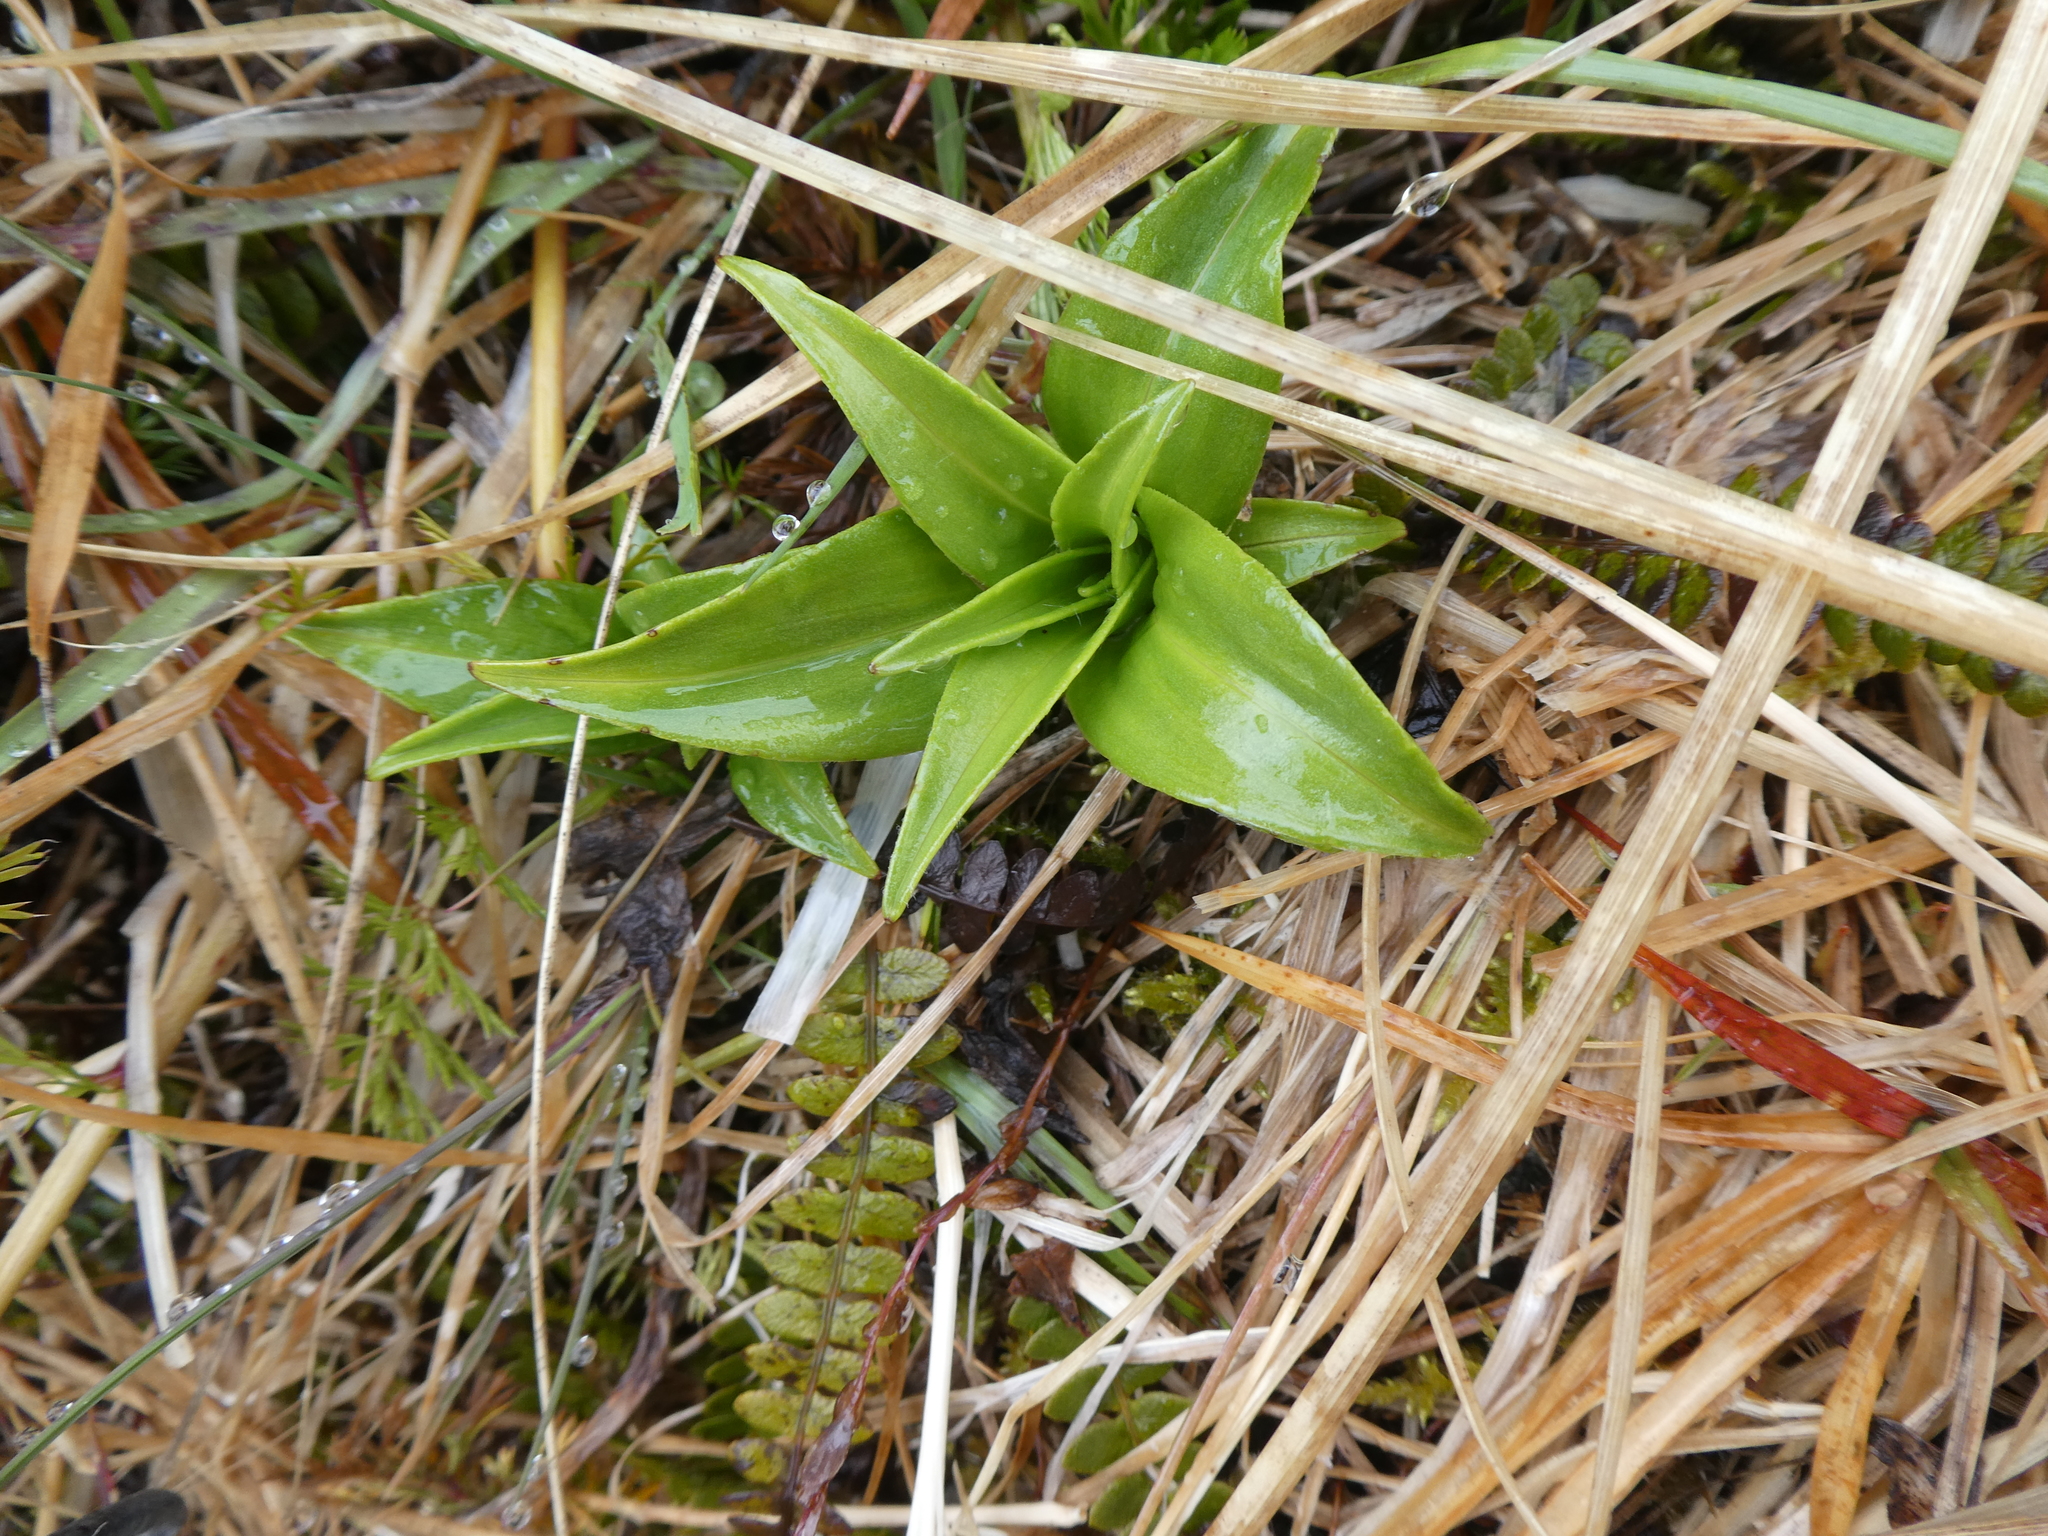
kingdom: Plantae
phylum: Tracheophyta
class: Magnoliopsida
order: Asterales
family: Asteraceae
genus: Dolichoglottis
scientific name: Dolichoglottis scorzoneroides
